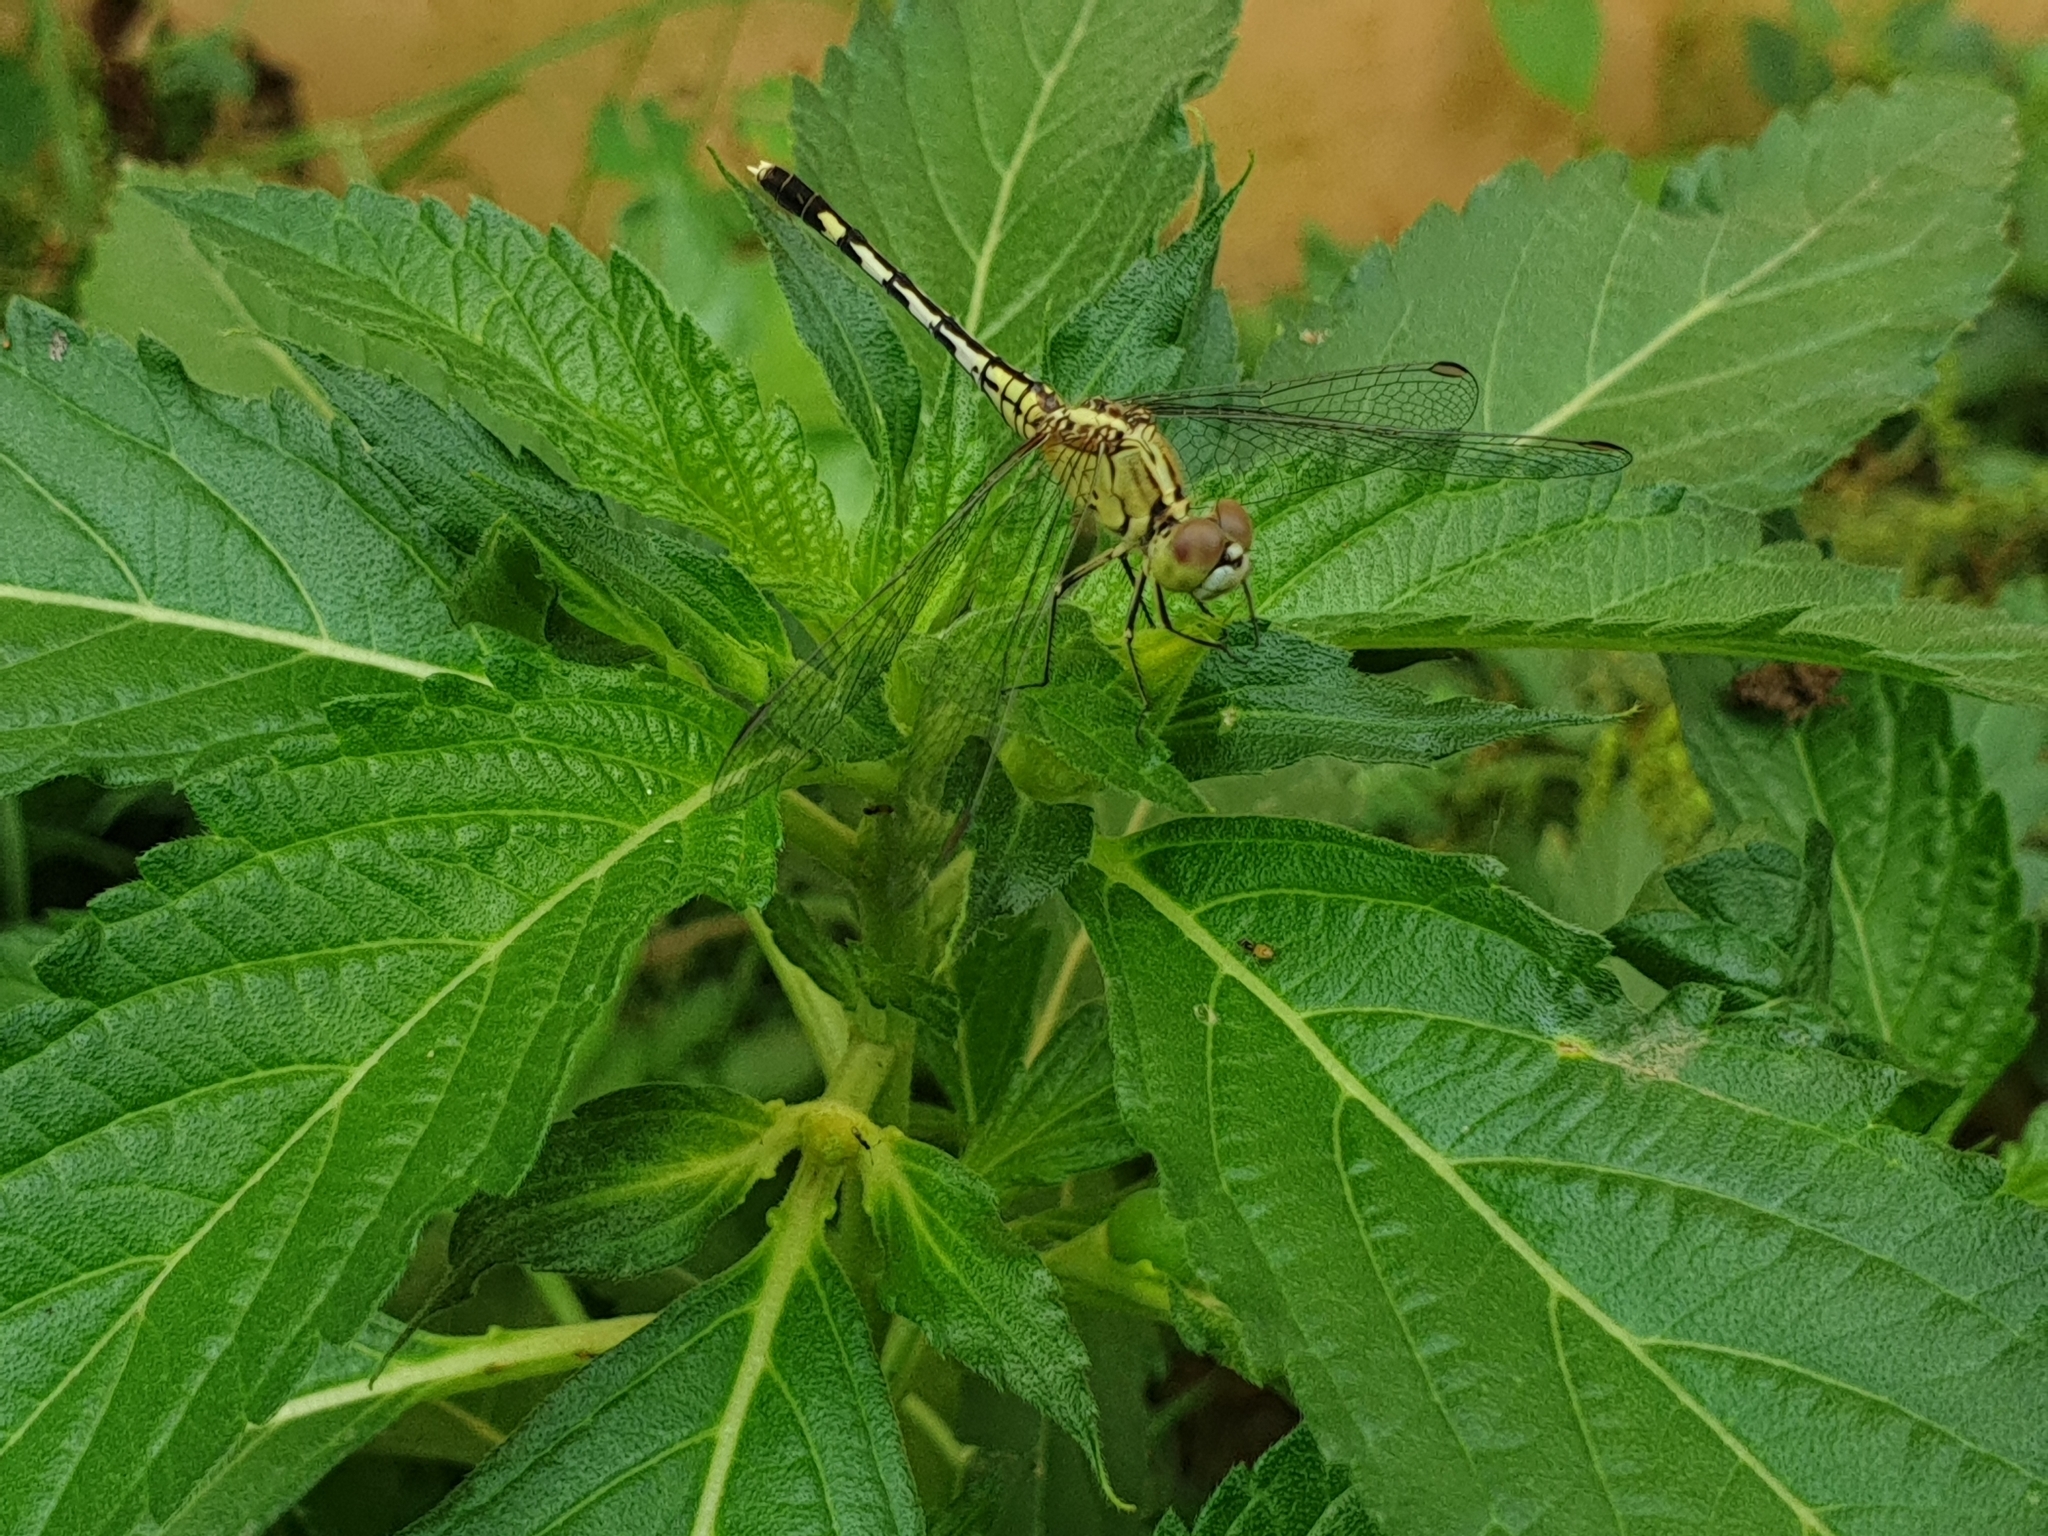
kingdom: Animalia
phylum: Arthropoda
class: Insecta
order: Odonata
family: Libellulidae
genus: Diplacodes
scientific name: Diplacodes trivialis
